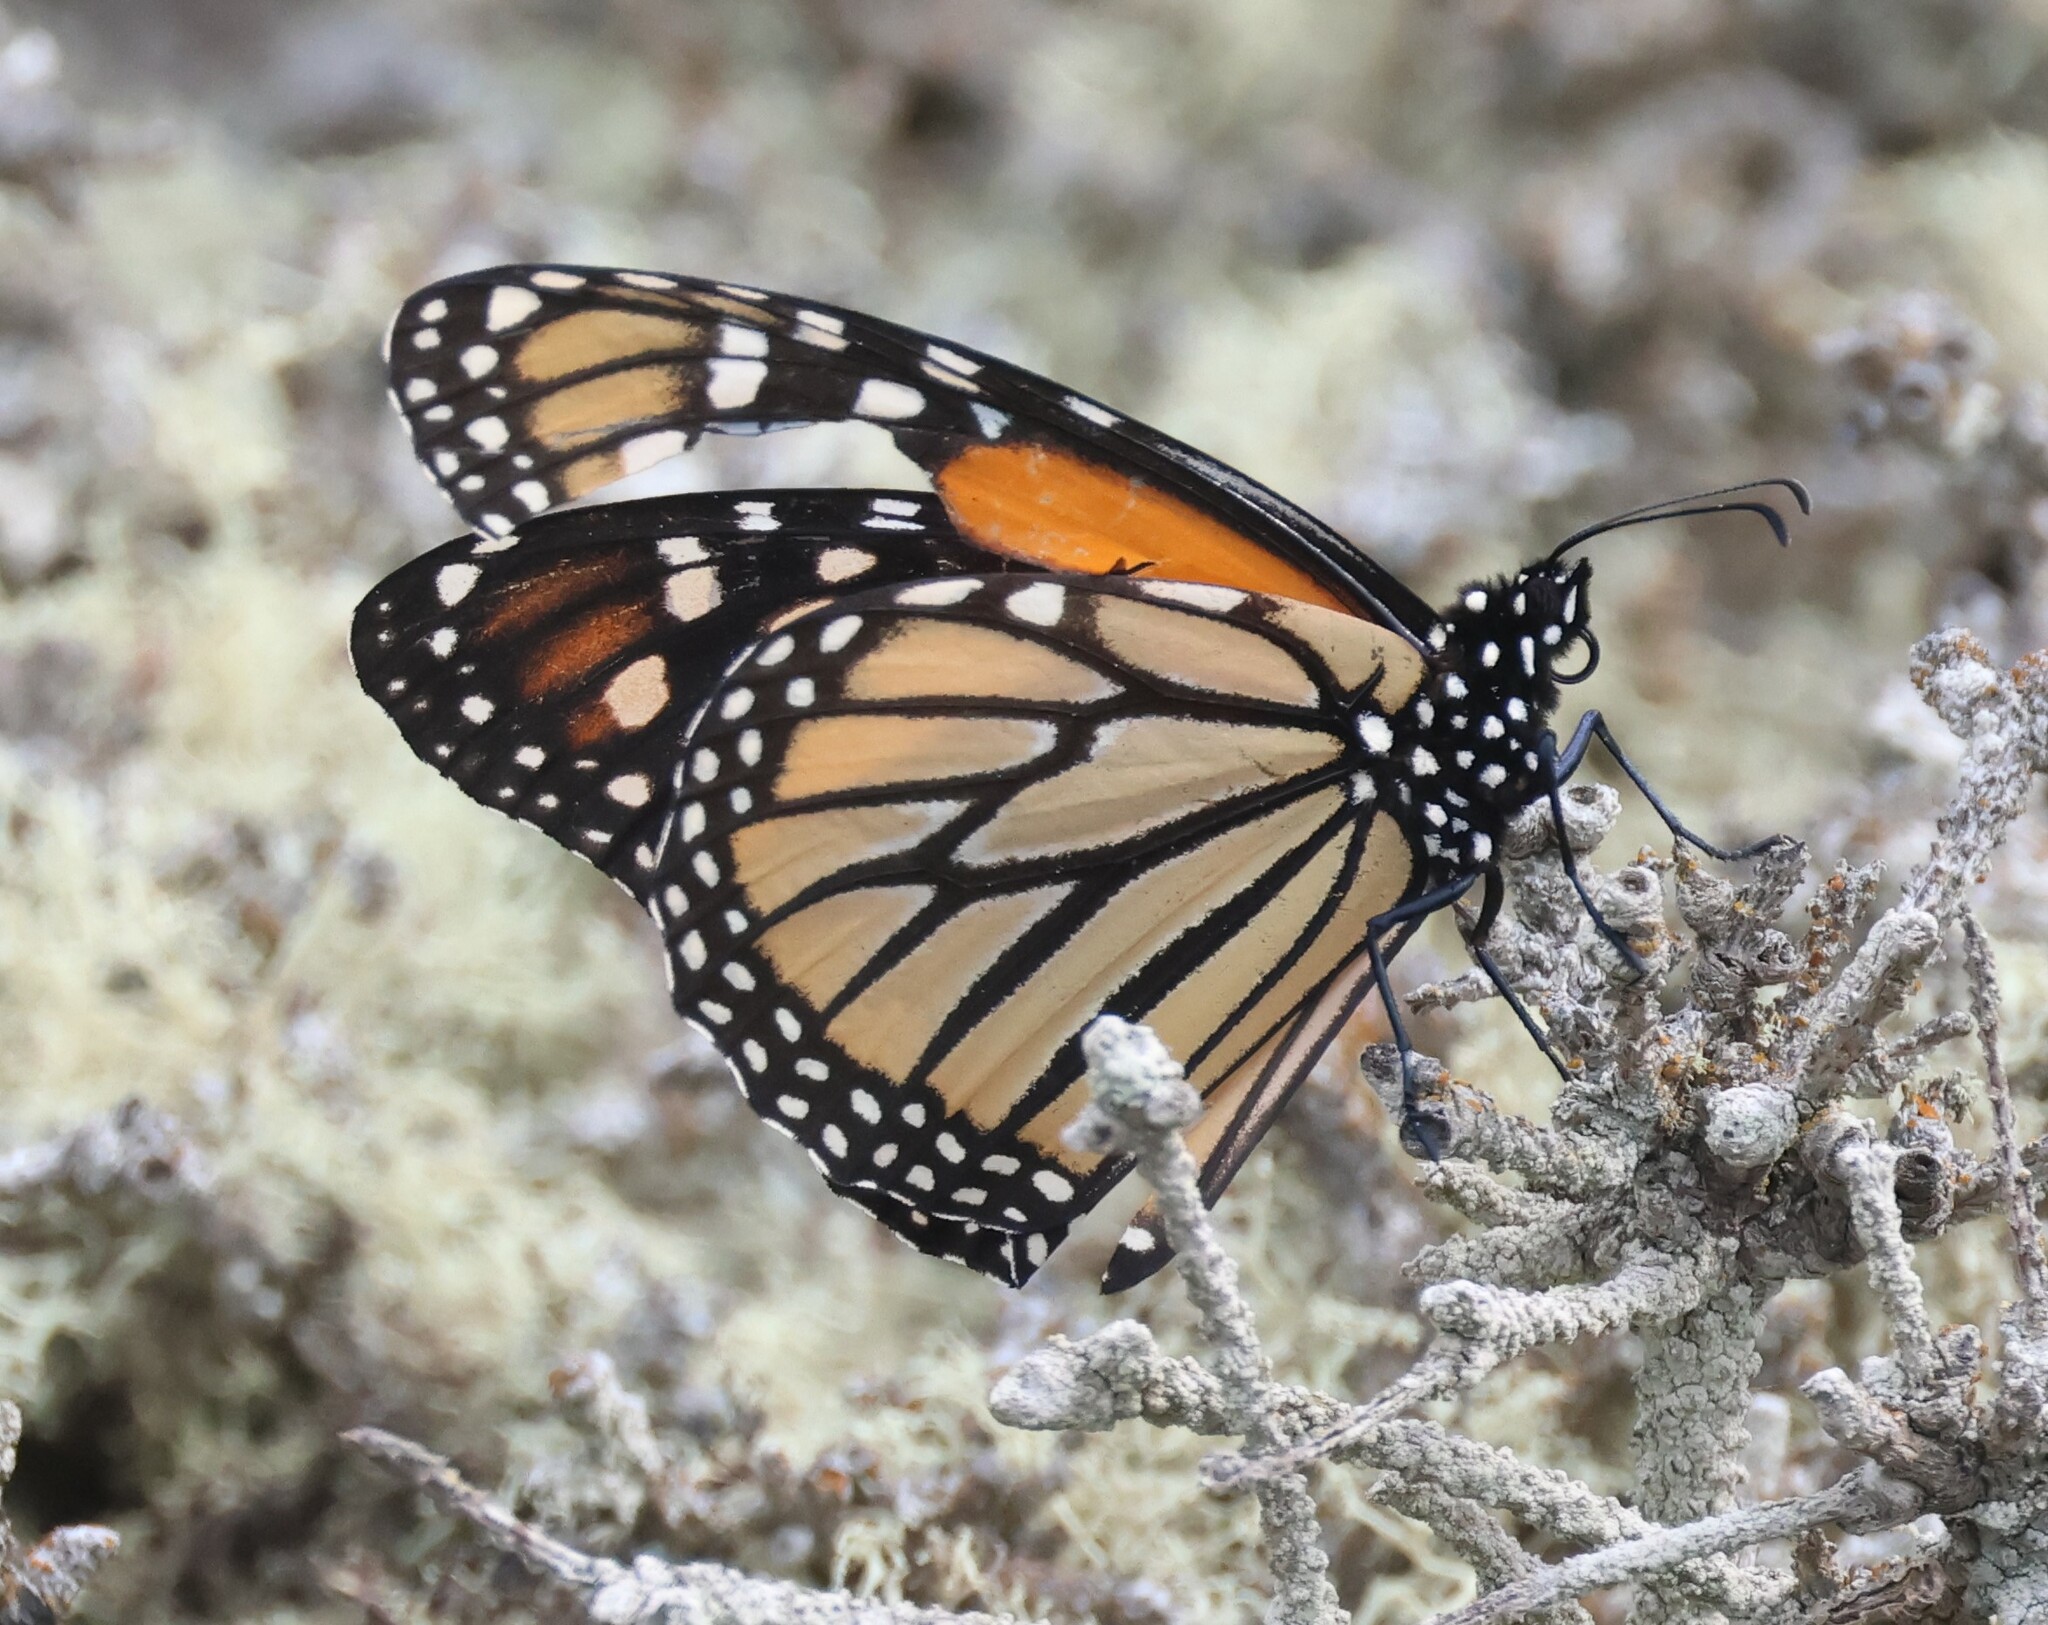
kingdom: Animalia
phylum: Arthropoda
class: Insecta
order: Lepidoptera
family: Nymphalidae
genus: Danaus
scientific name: Danaus plexippus
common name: Monarch
